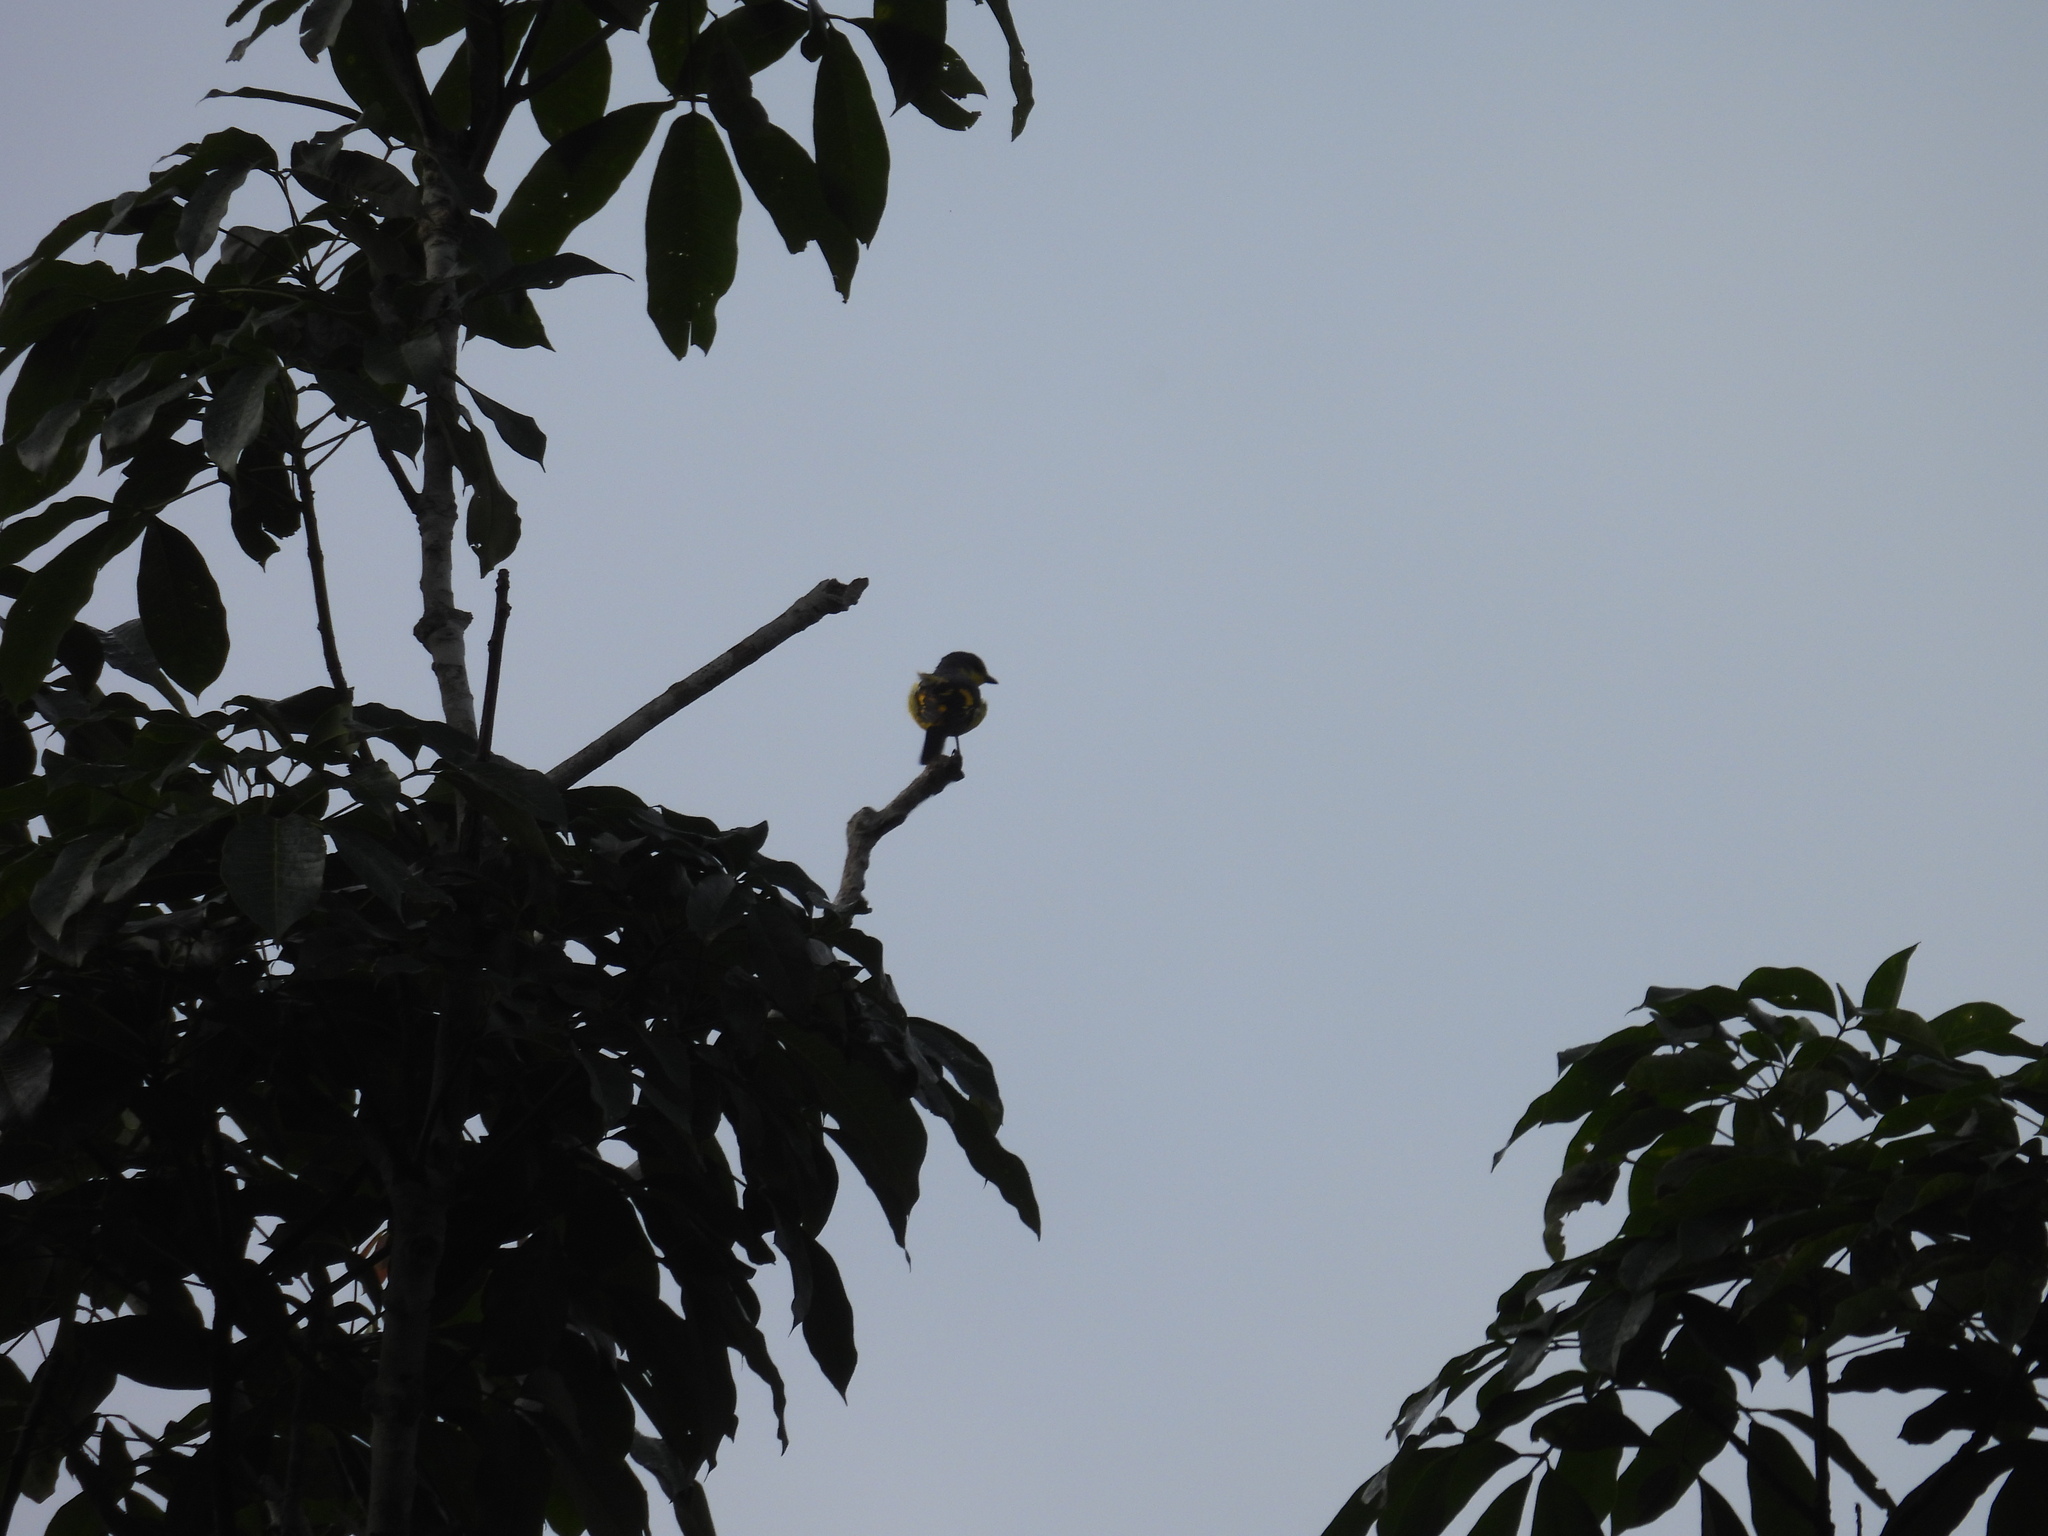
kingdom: Animalia
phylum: Chordata
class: Aves
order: Passeriformes
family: Campephagidae
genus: Pericrocotus
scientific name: Pericrocotus flammeus
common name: Orange minivet
